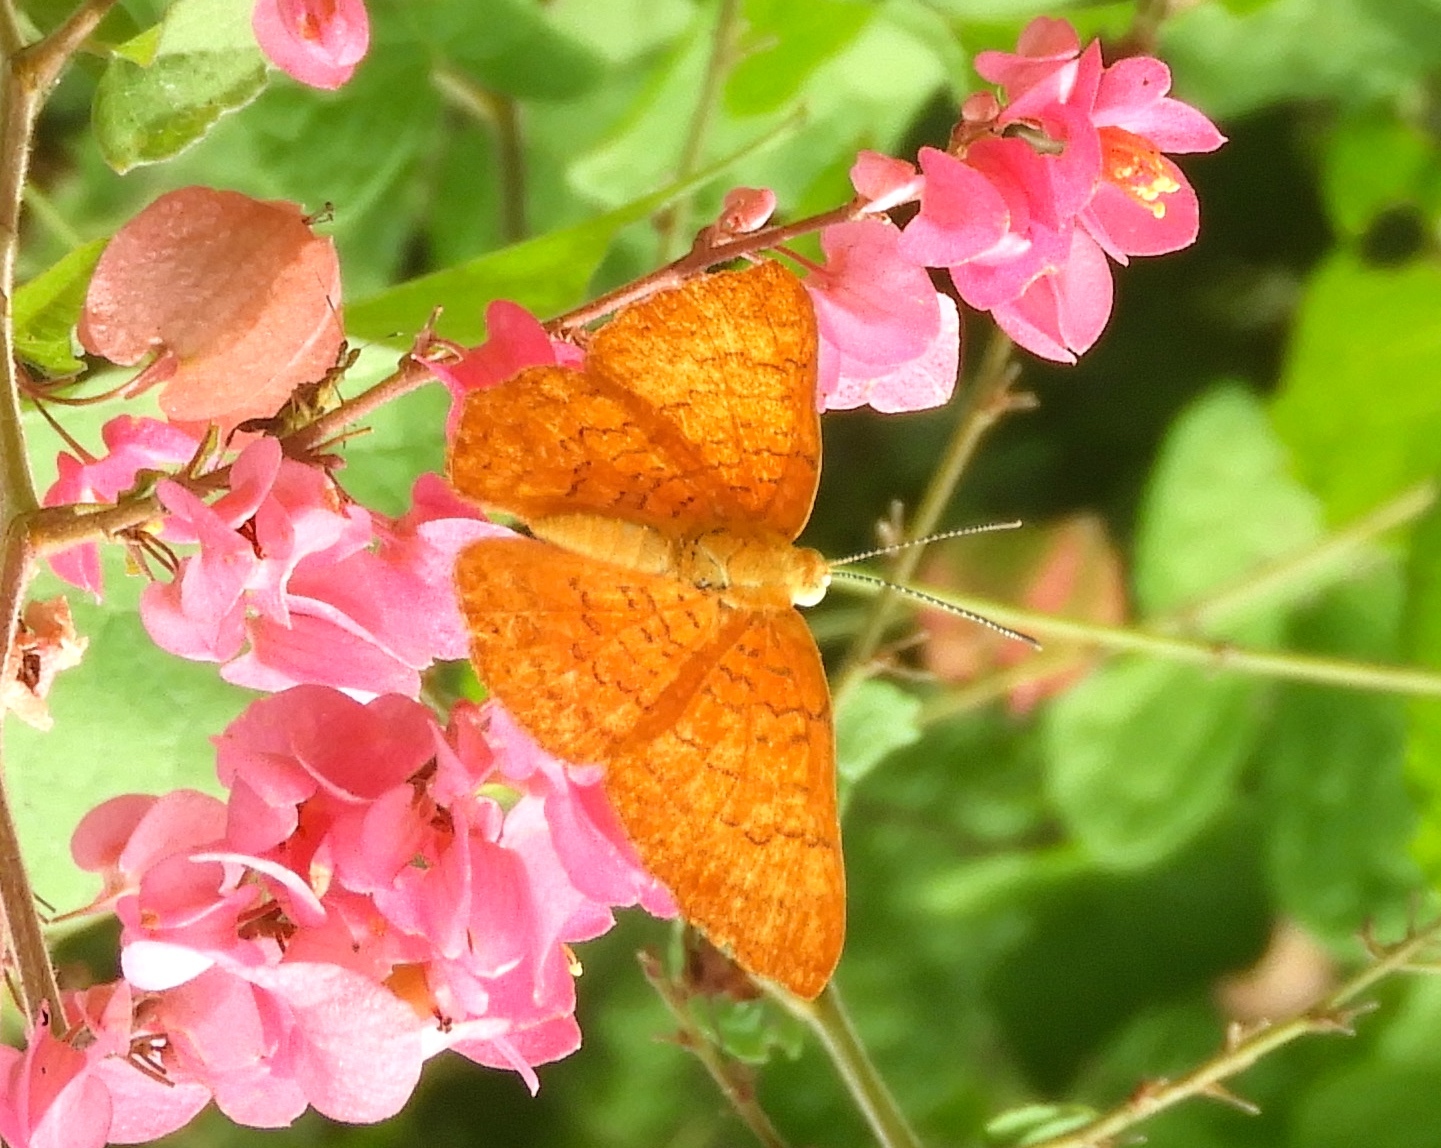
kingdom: Animalia
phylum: Arthropoda
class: Insecta
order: Lepidoptera
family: Lycaenidae
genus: Emesis
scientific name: Emesis
